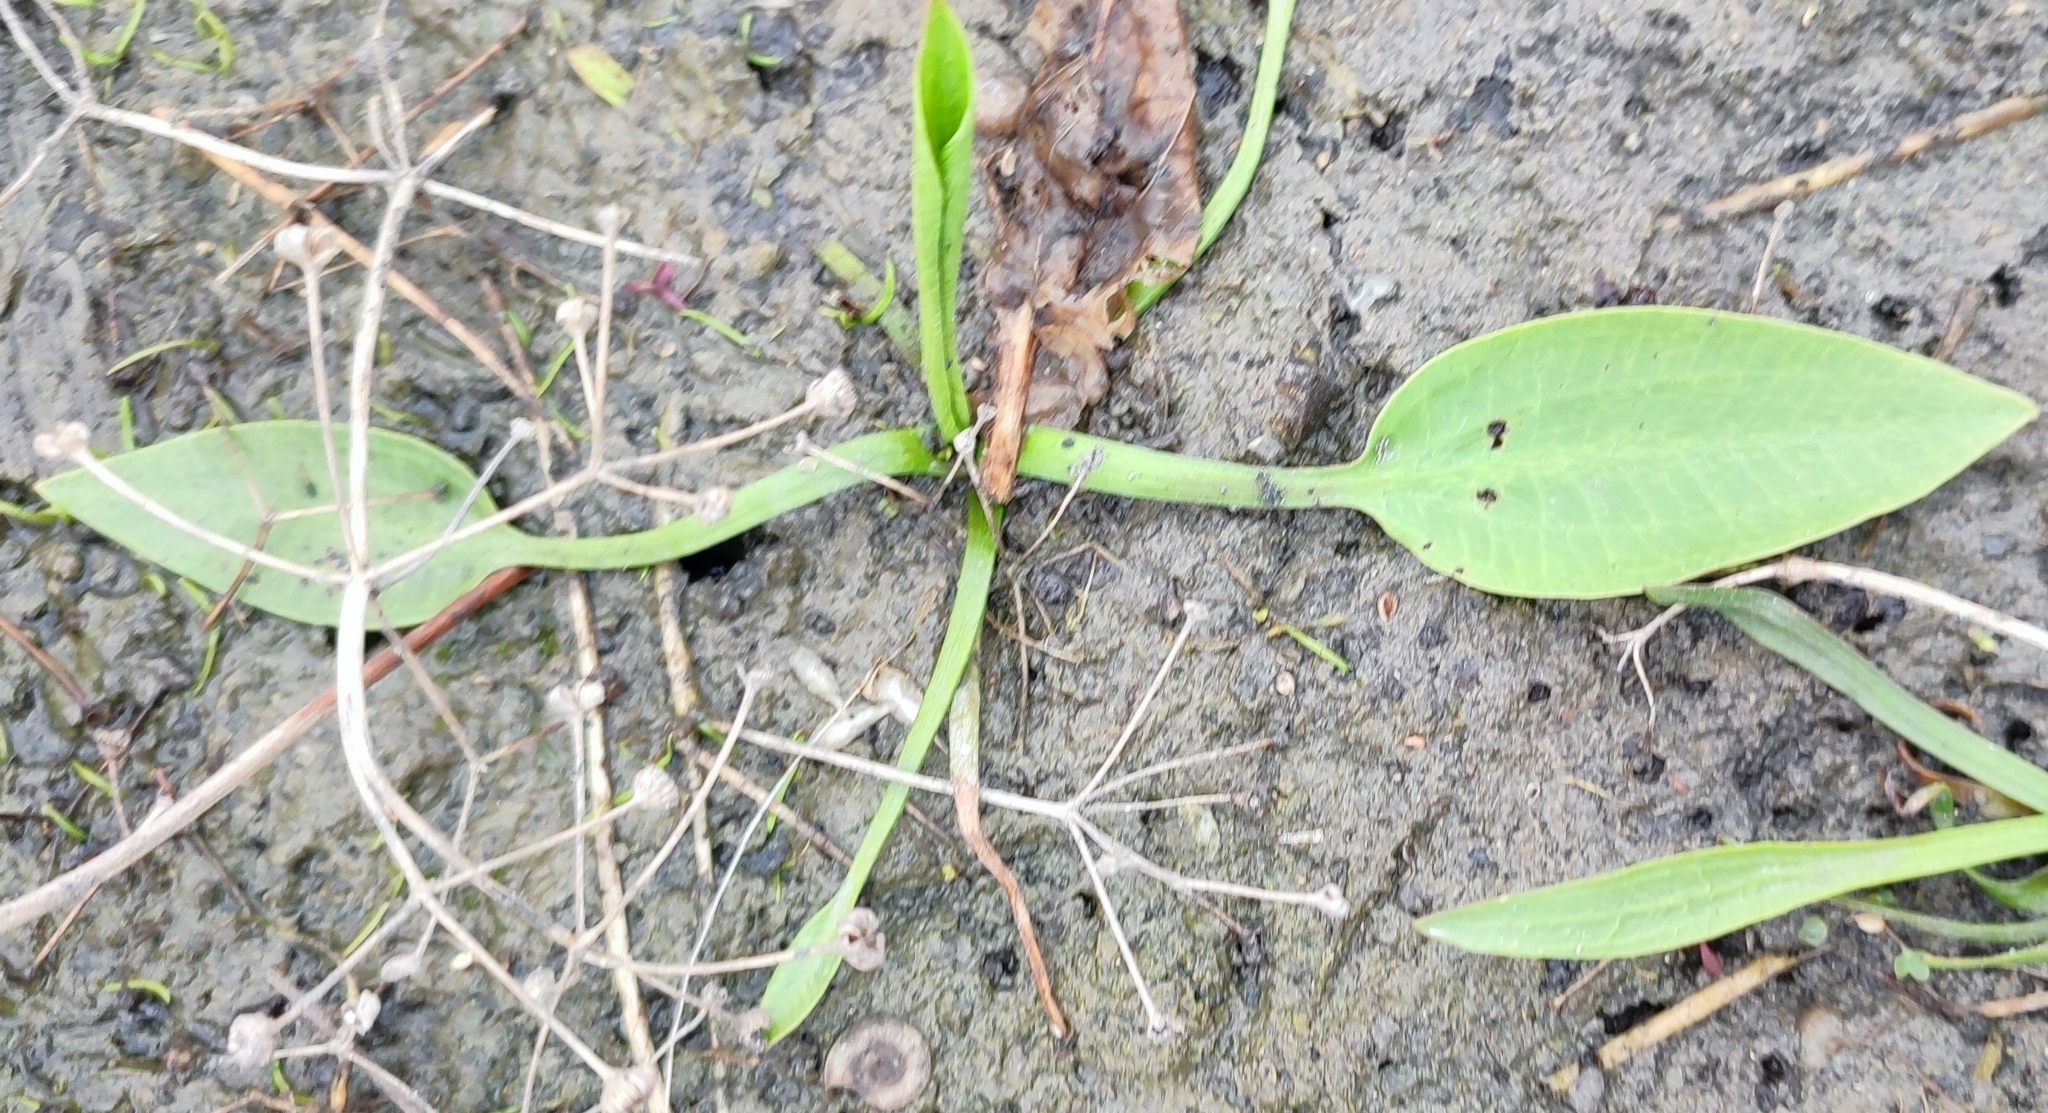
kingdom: Plantae
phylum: Tracheophyta
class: Liliopsida
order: Alismatales
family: Alismataceae
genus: Alisma
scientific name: Alisma plantago-aquatica
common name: Water-plantain
